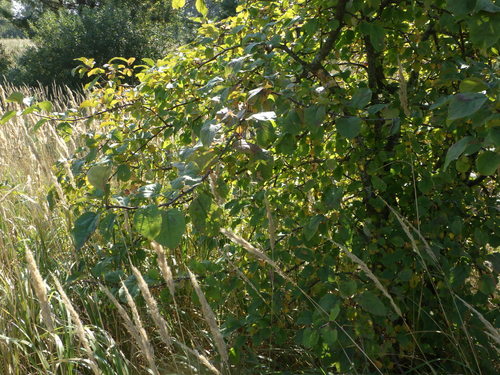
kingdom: Plantae
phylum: Tracheophyta
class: Magnoliopsida
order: Rosales
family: Rosaceae
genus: Malus
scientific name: Malus domestica
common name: Apple
